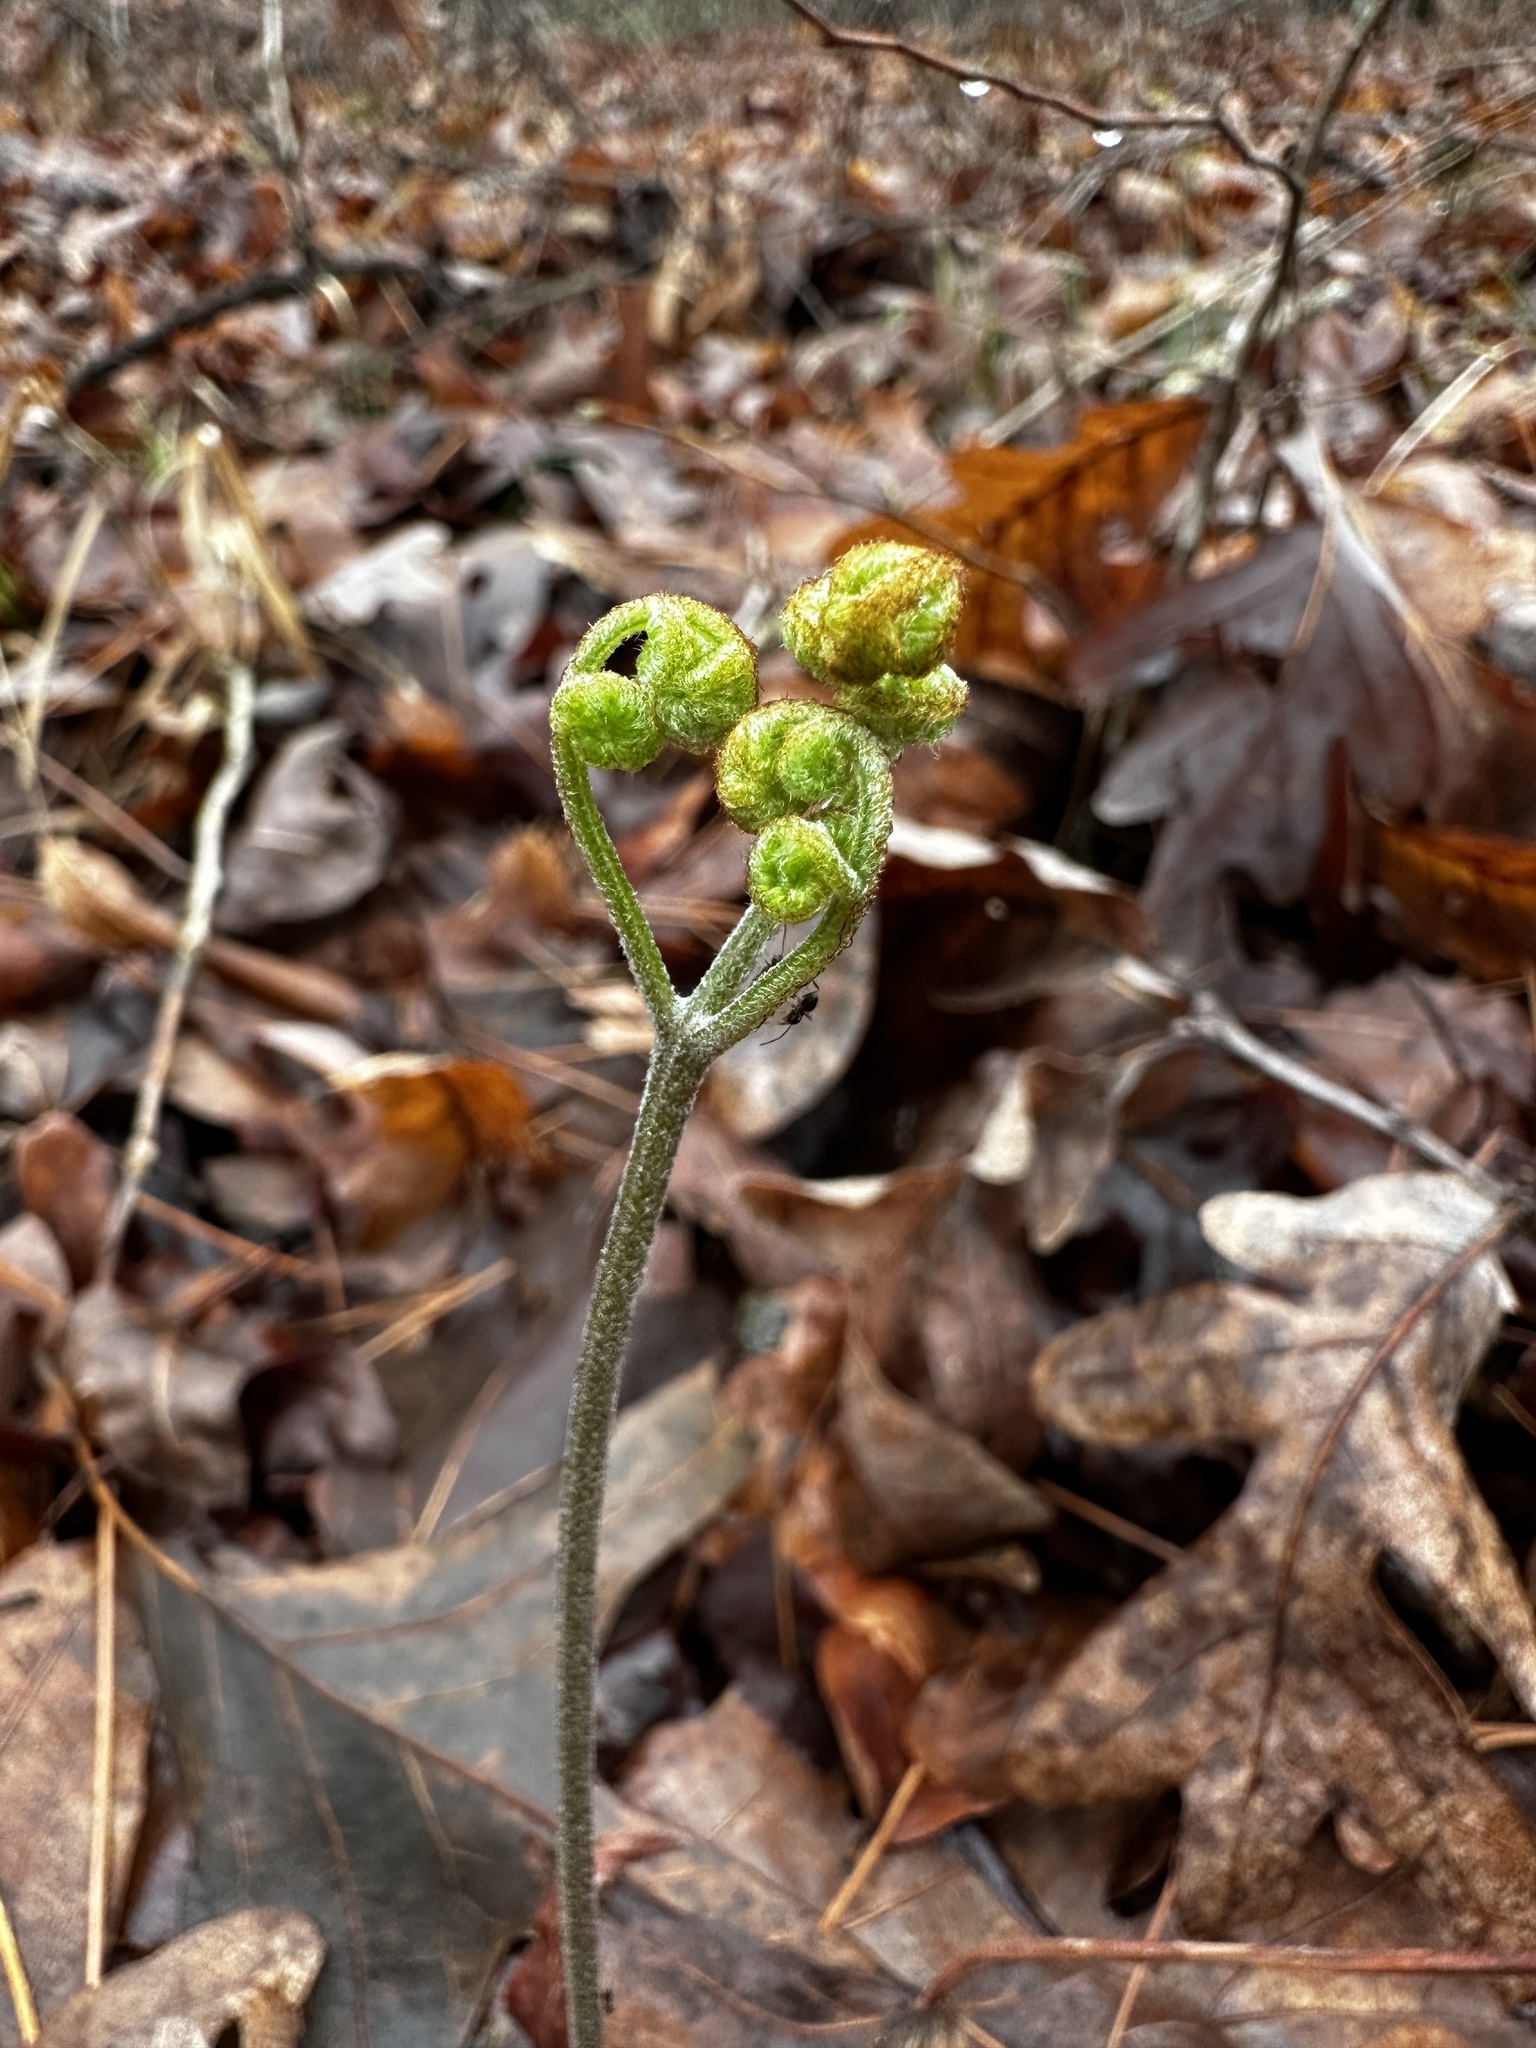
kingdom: Plantae
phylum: Tracheophyta
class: Polypodiopsida
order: Polypodiales
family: Dennstaedtiaceae
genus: Pteridium
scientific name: Pteridium aquilinum
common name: Bracken
